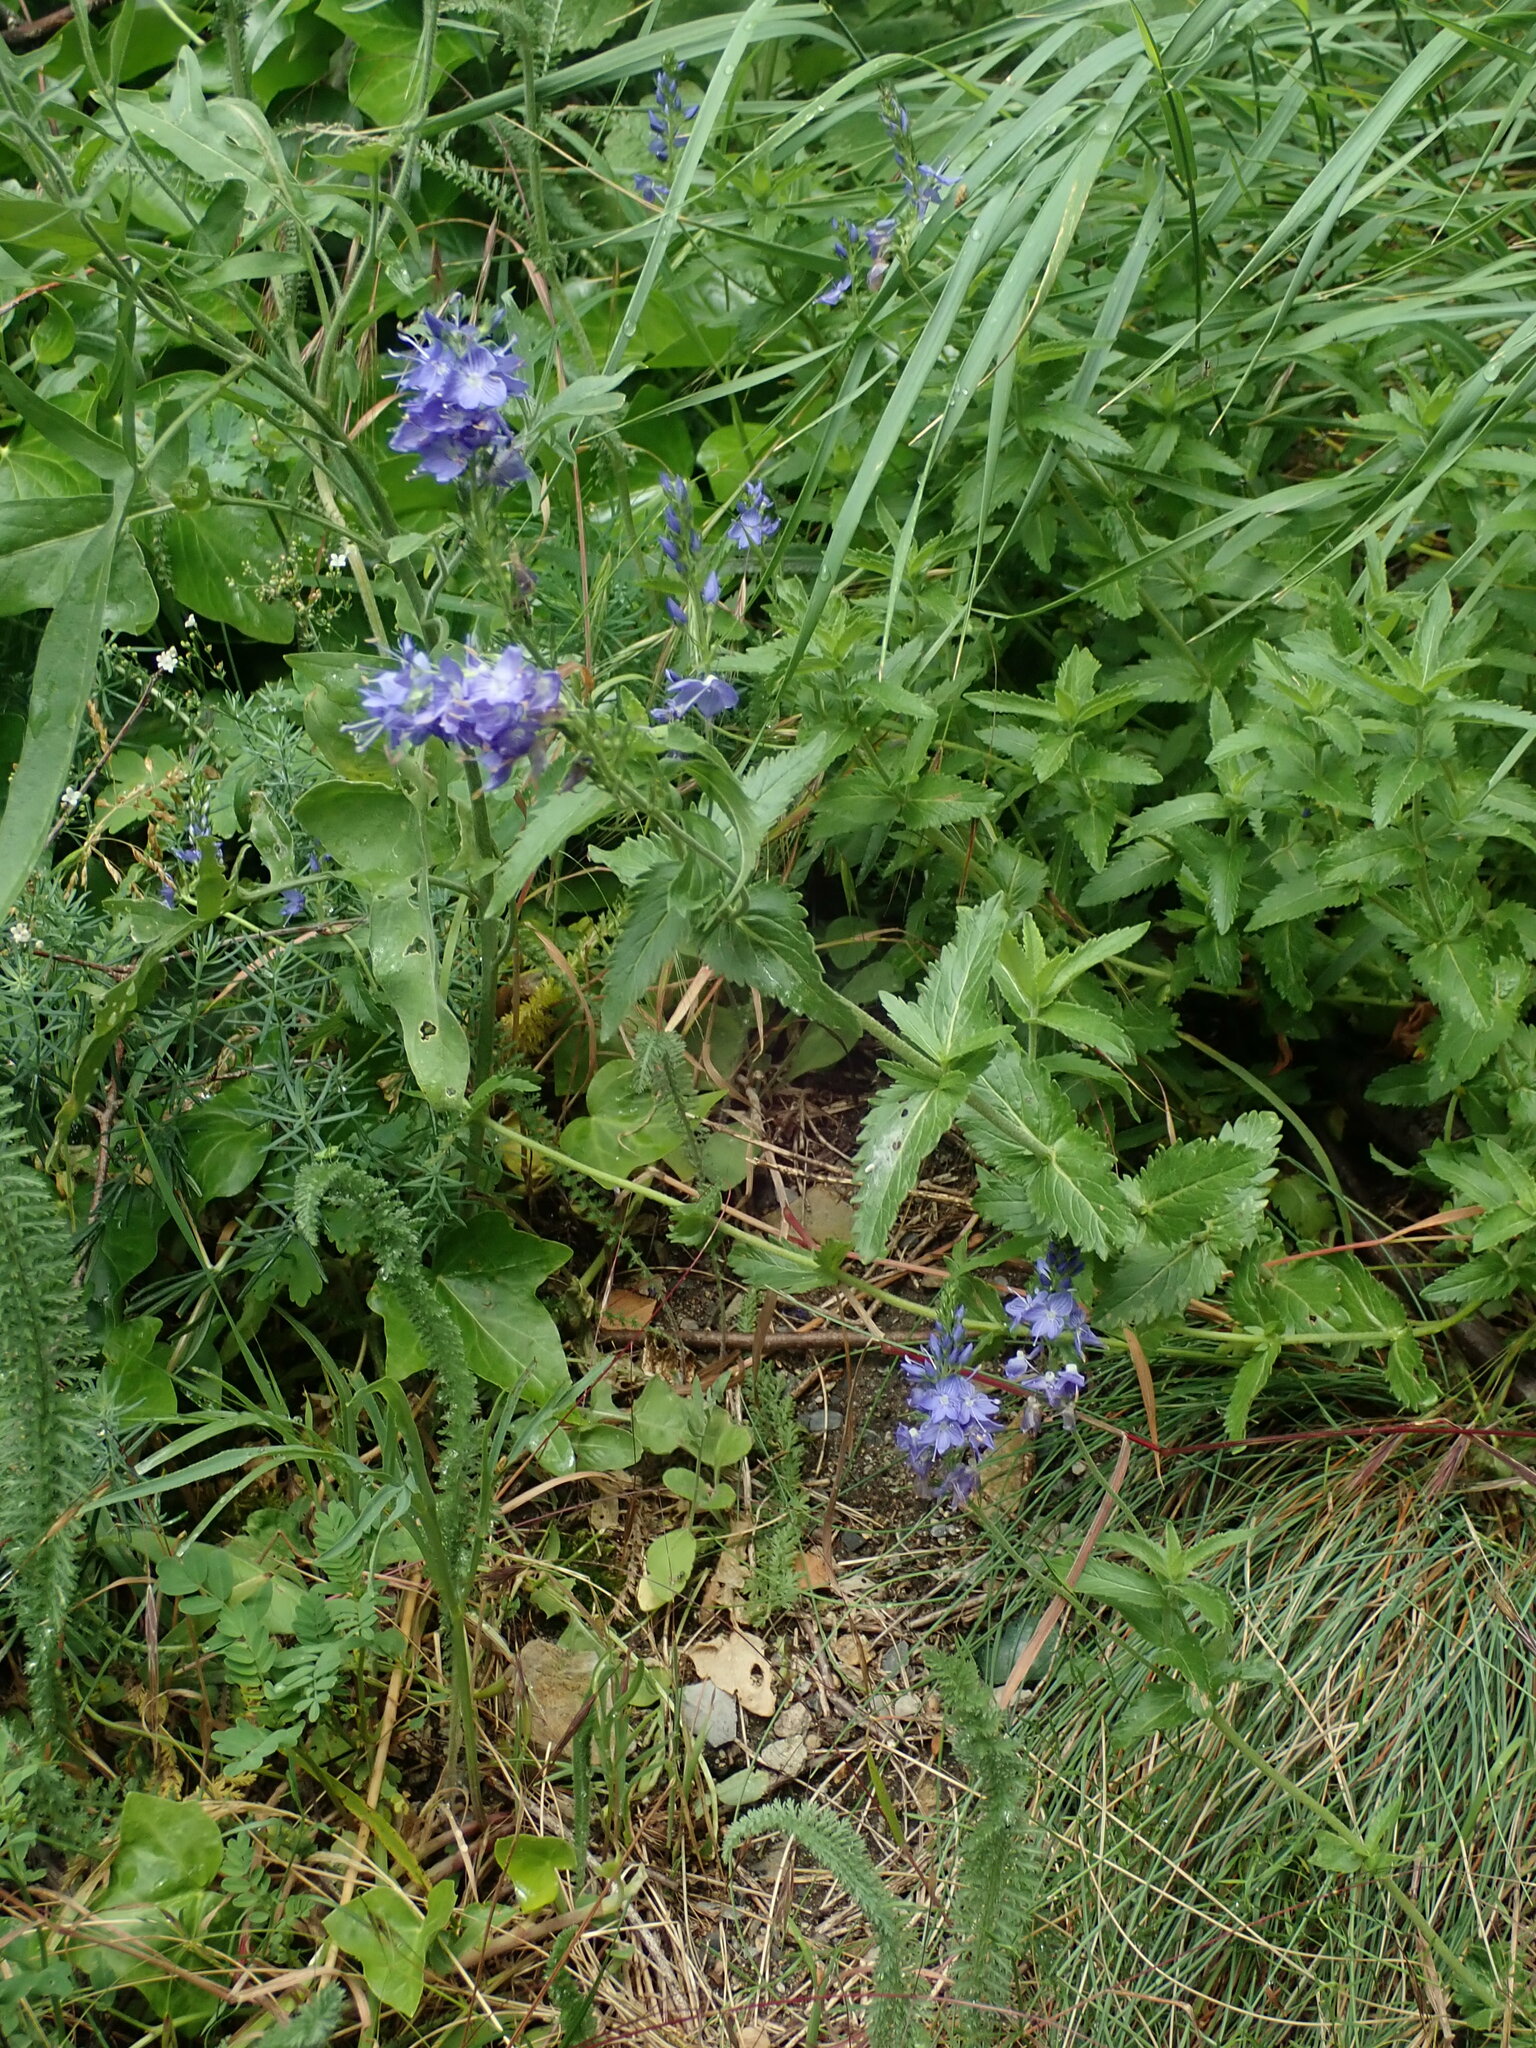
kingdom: Plantae
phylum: Tracheophyta
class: Magnoliopsida
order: Lamiales
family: Plantaginaceae
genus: Veronica
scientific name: Veronica teucrium
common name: Large speedwell
